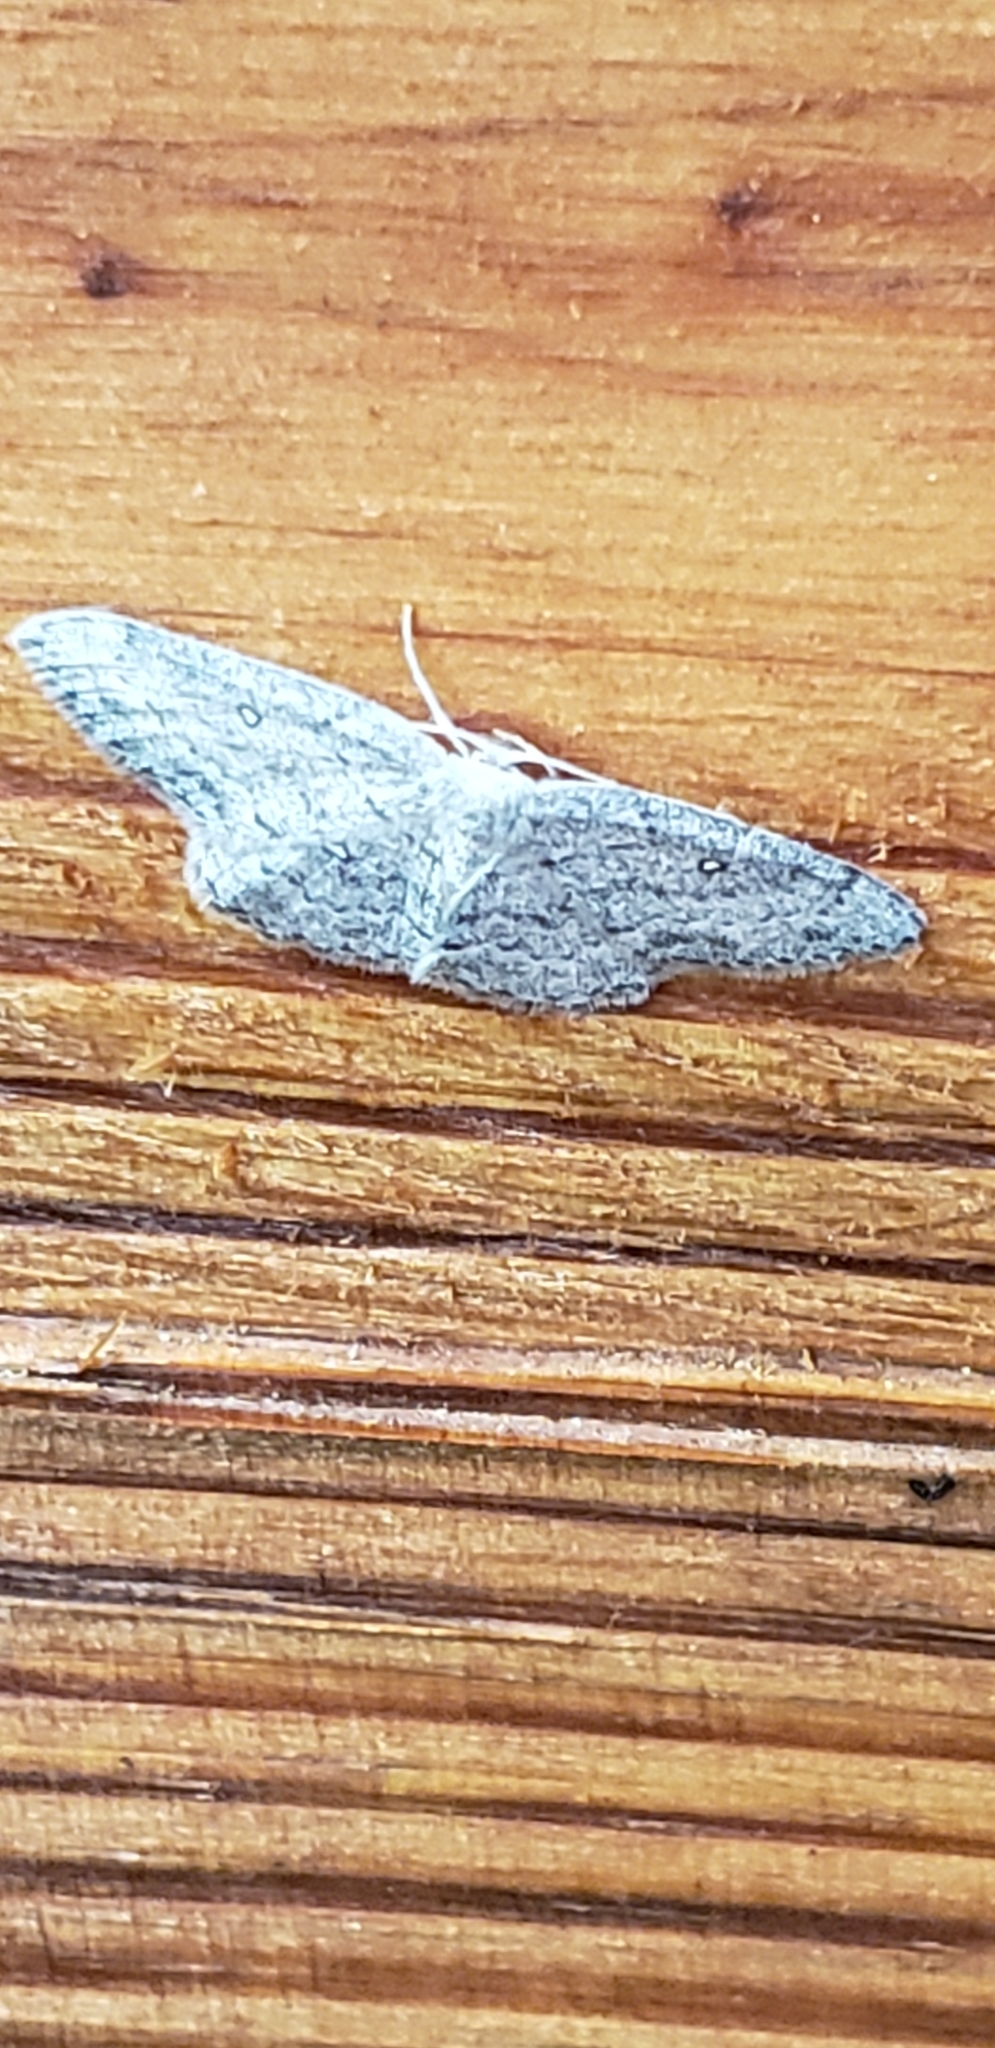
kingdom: Animalia
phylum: Arthropoda
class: Insecta
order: Lepidoptera
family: Geometridae
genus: Cyclophora
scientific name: Cyclophora pendulinaria
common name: Sweet fern geometer
